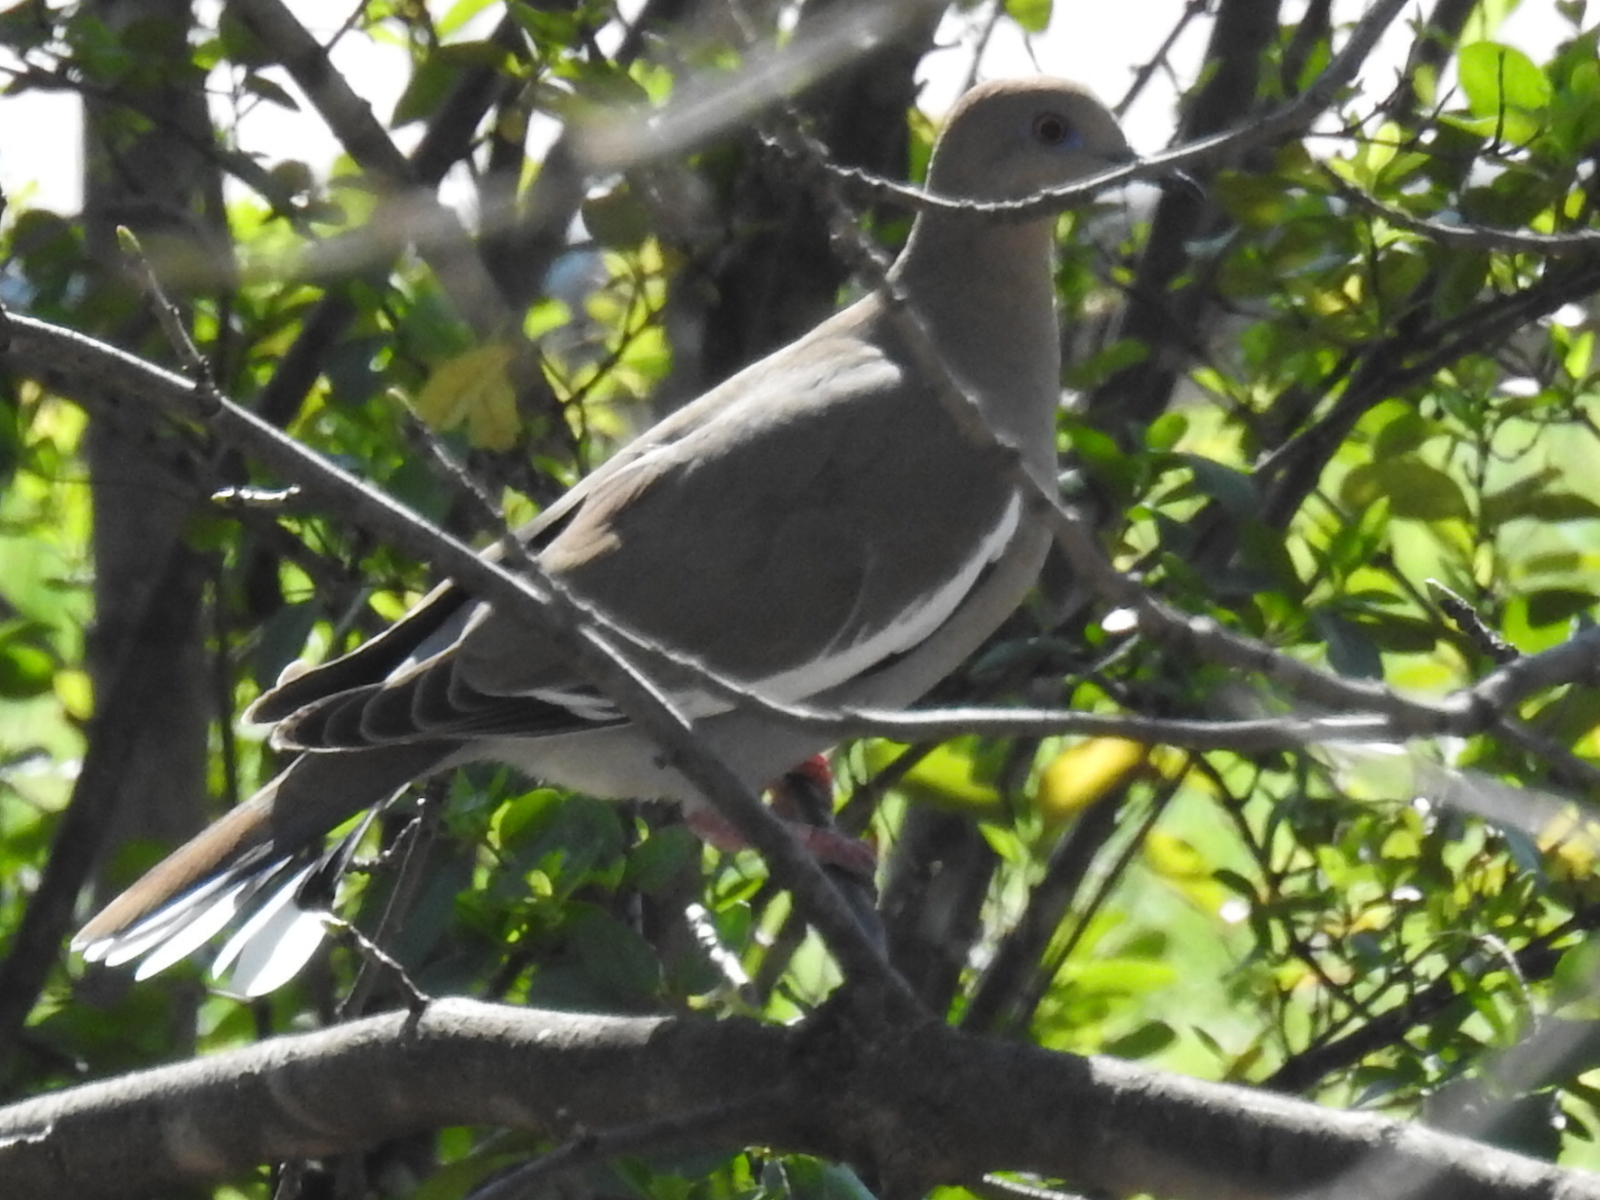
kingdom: Animalia
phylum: Chordata
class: Aves
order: Columbiformes
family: Columbidae
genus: Zenaida
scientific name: Zenaida asiatica
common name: White-winged dove
